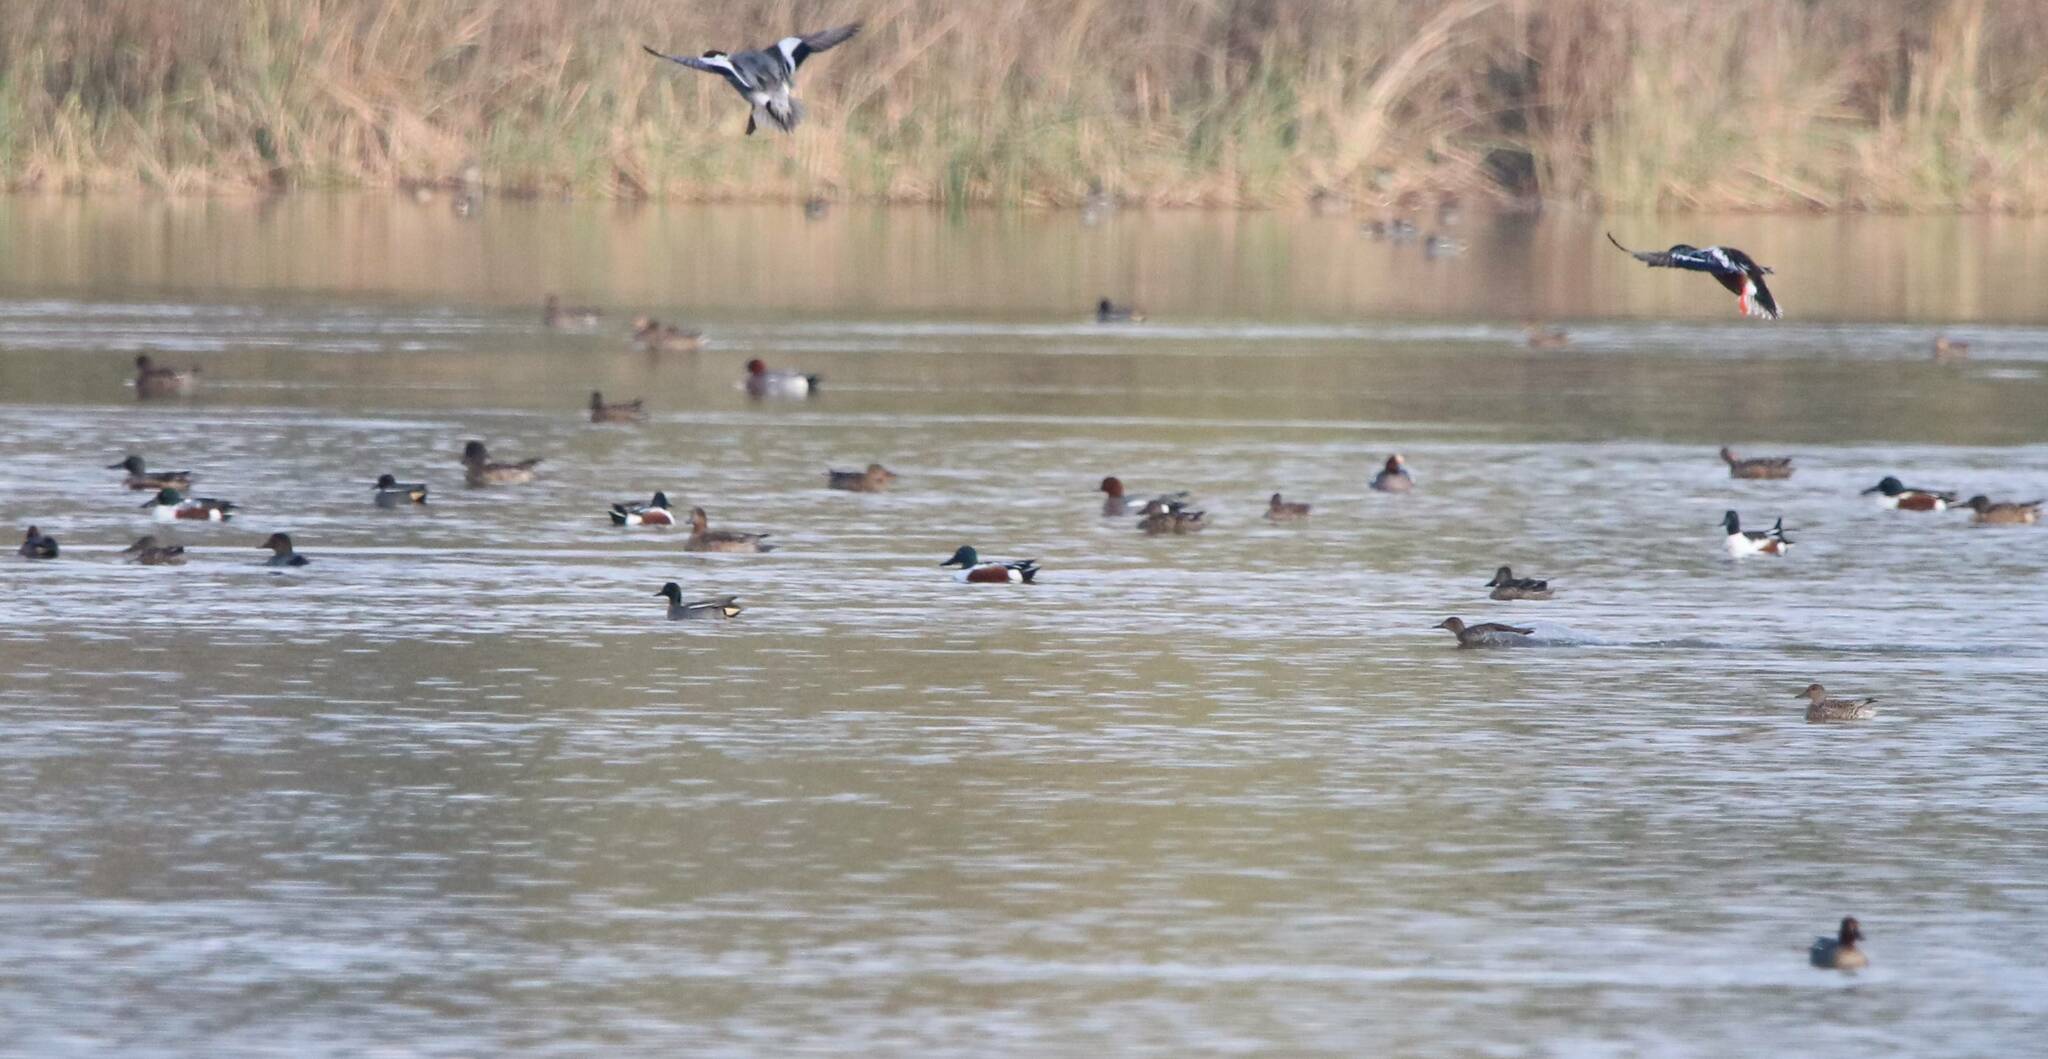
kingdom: Animalia
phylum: Chordata
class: Aves
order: Anseriformes
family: Anatidae
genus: Spatula
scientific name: Spatula clypeata
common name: Northern shoveler
